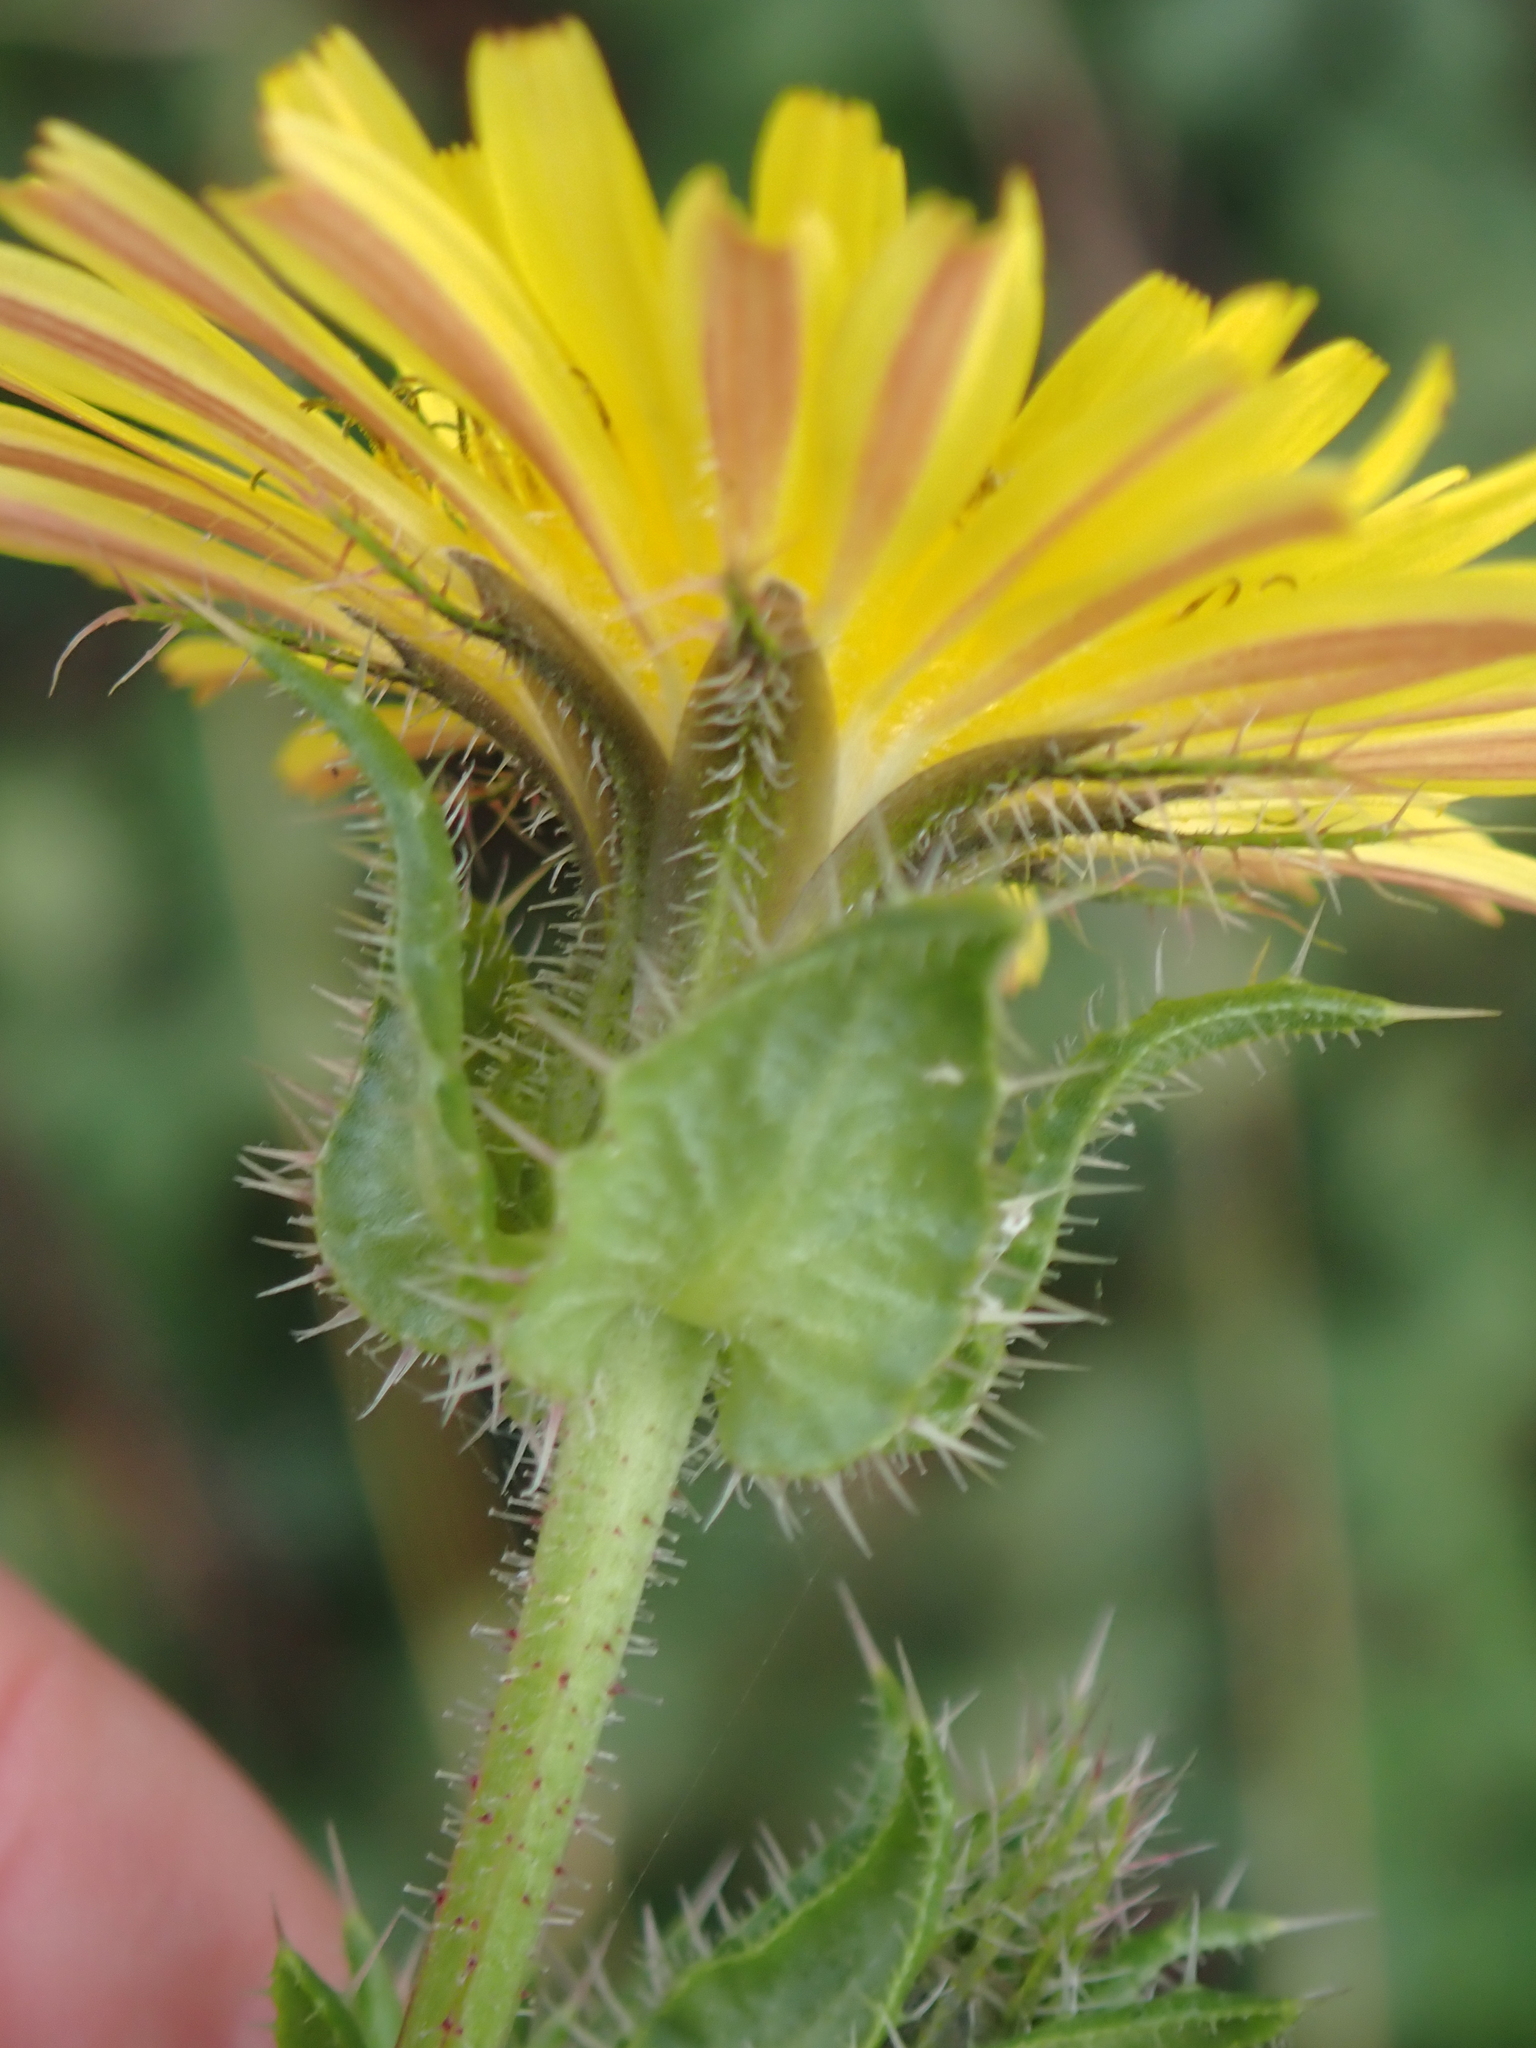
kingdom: Plantae
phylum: Tracheophyta
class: Magnoliopsida
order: Asterales
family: Asteraceae
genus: Helminthotheca
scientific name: Helminthotheca echioides
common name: Ox-tongue
